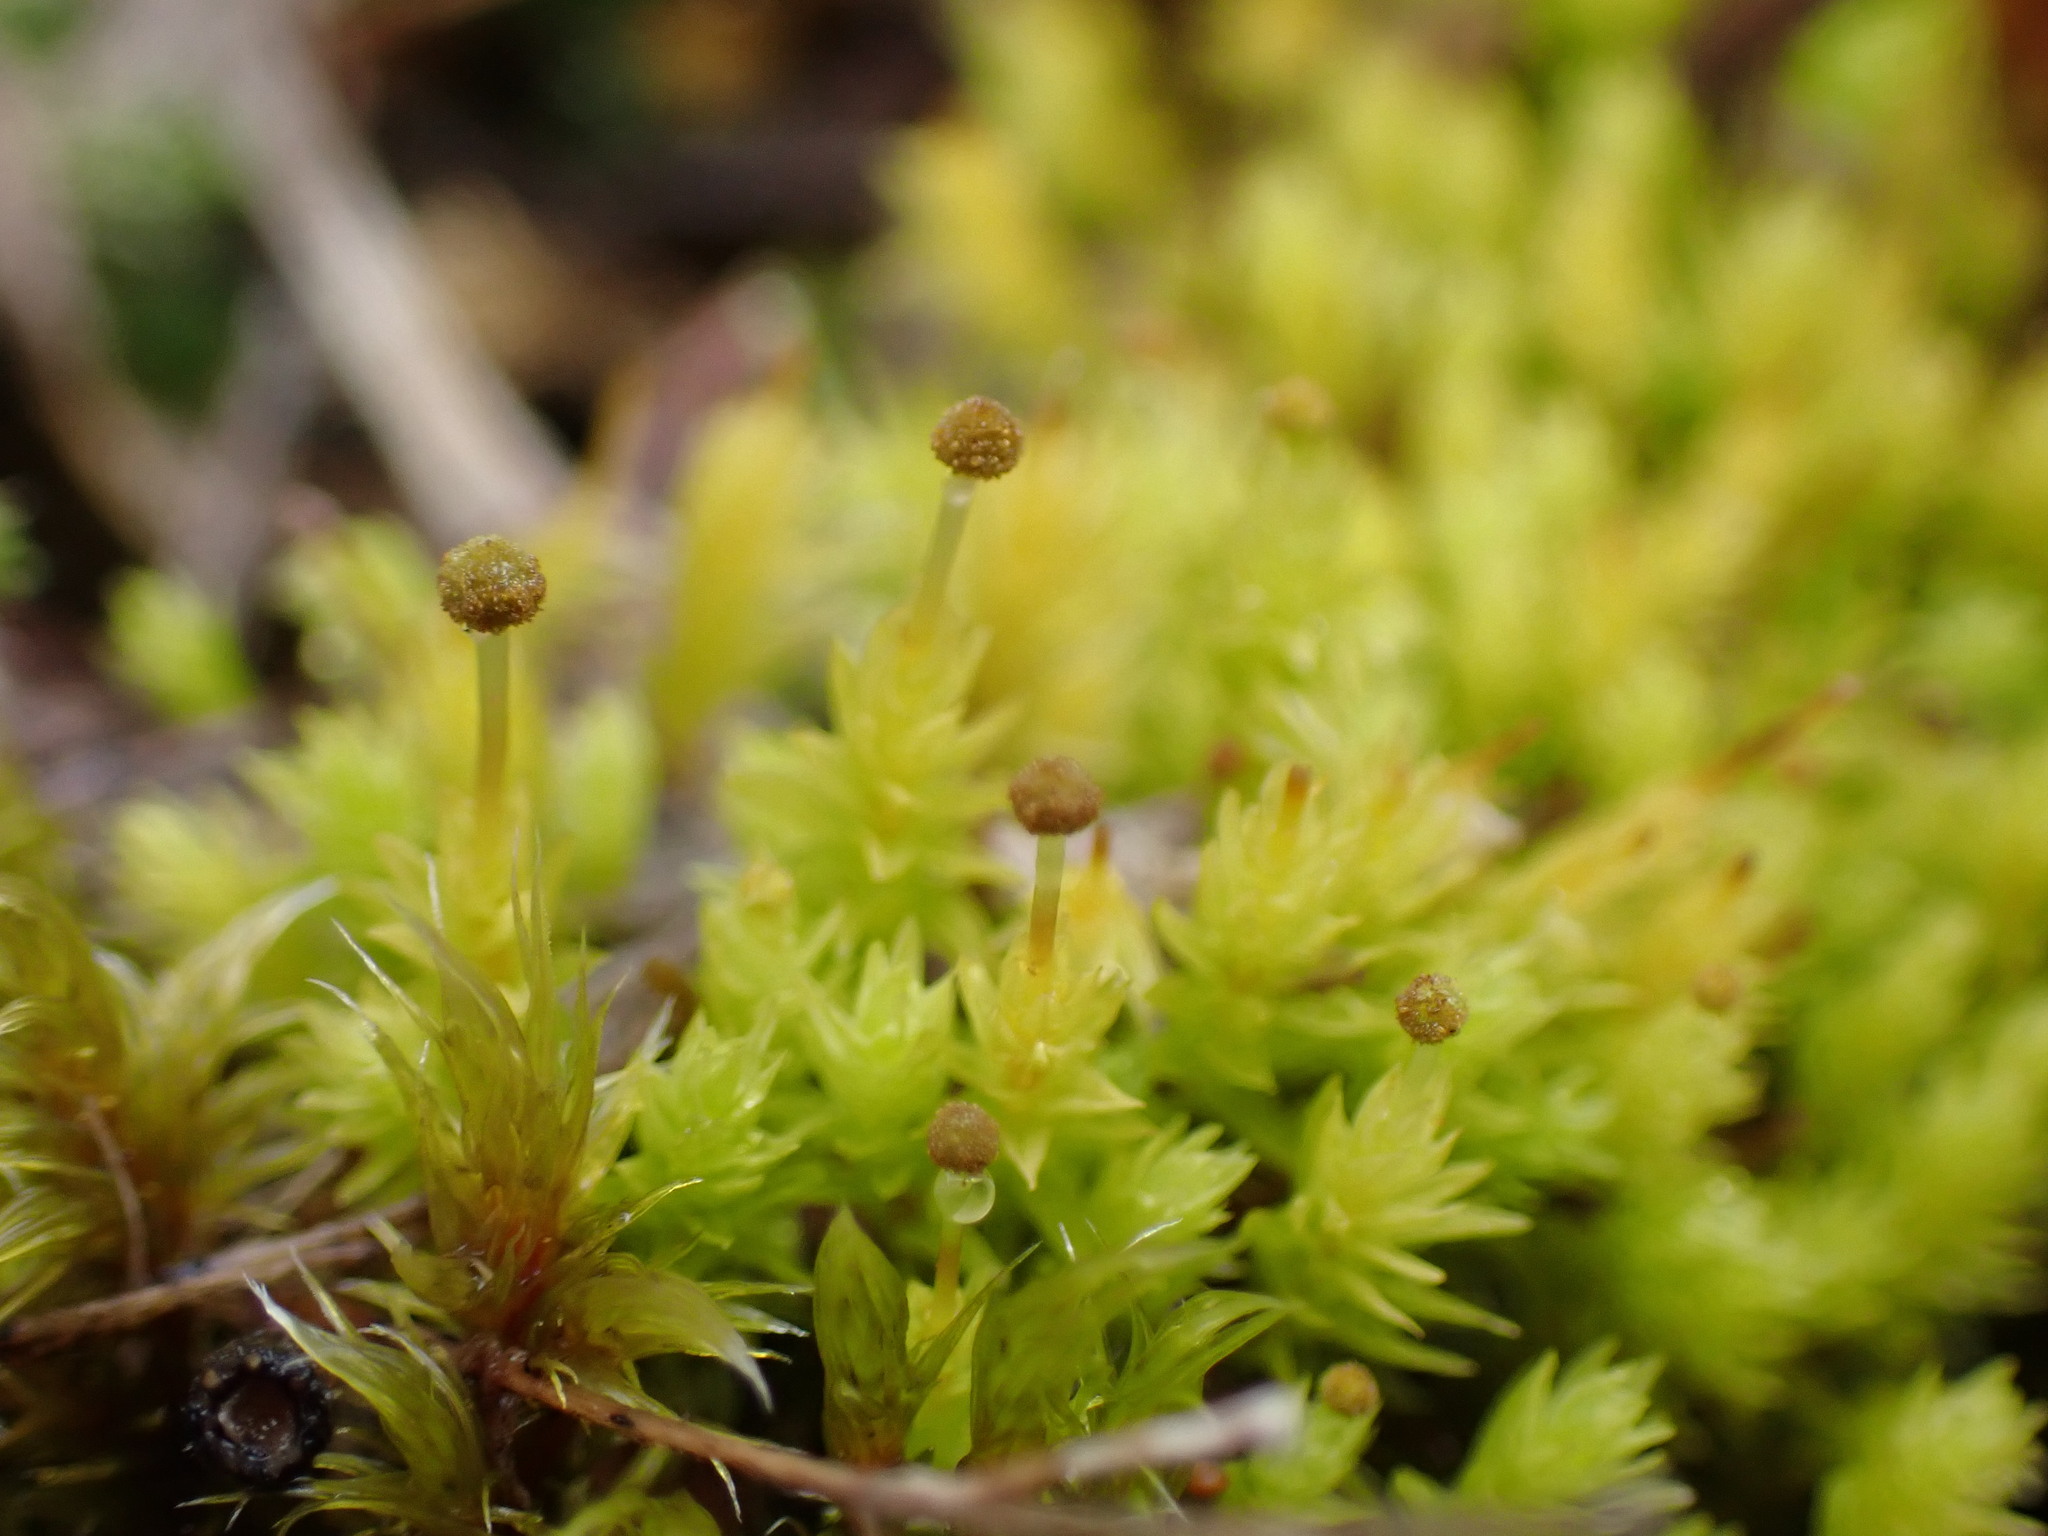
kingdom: Plantae
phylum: Bryophyta
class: Bryopsida
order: Aulacomniales
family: Aulacomniaceae
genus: Aulacomnium
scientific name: Aulacomnium androgynum
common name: Little groove moss
